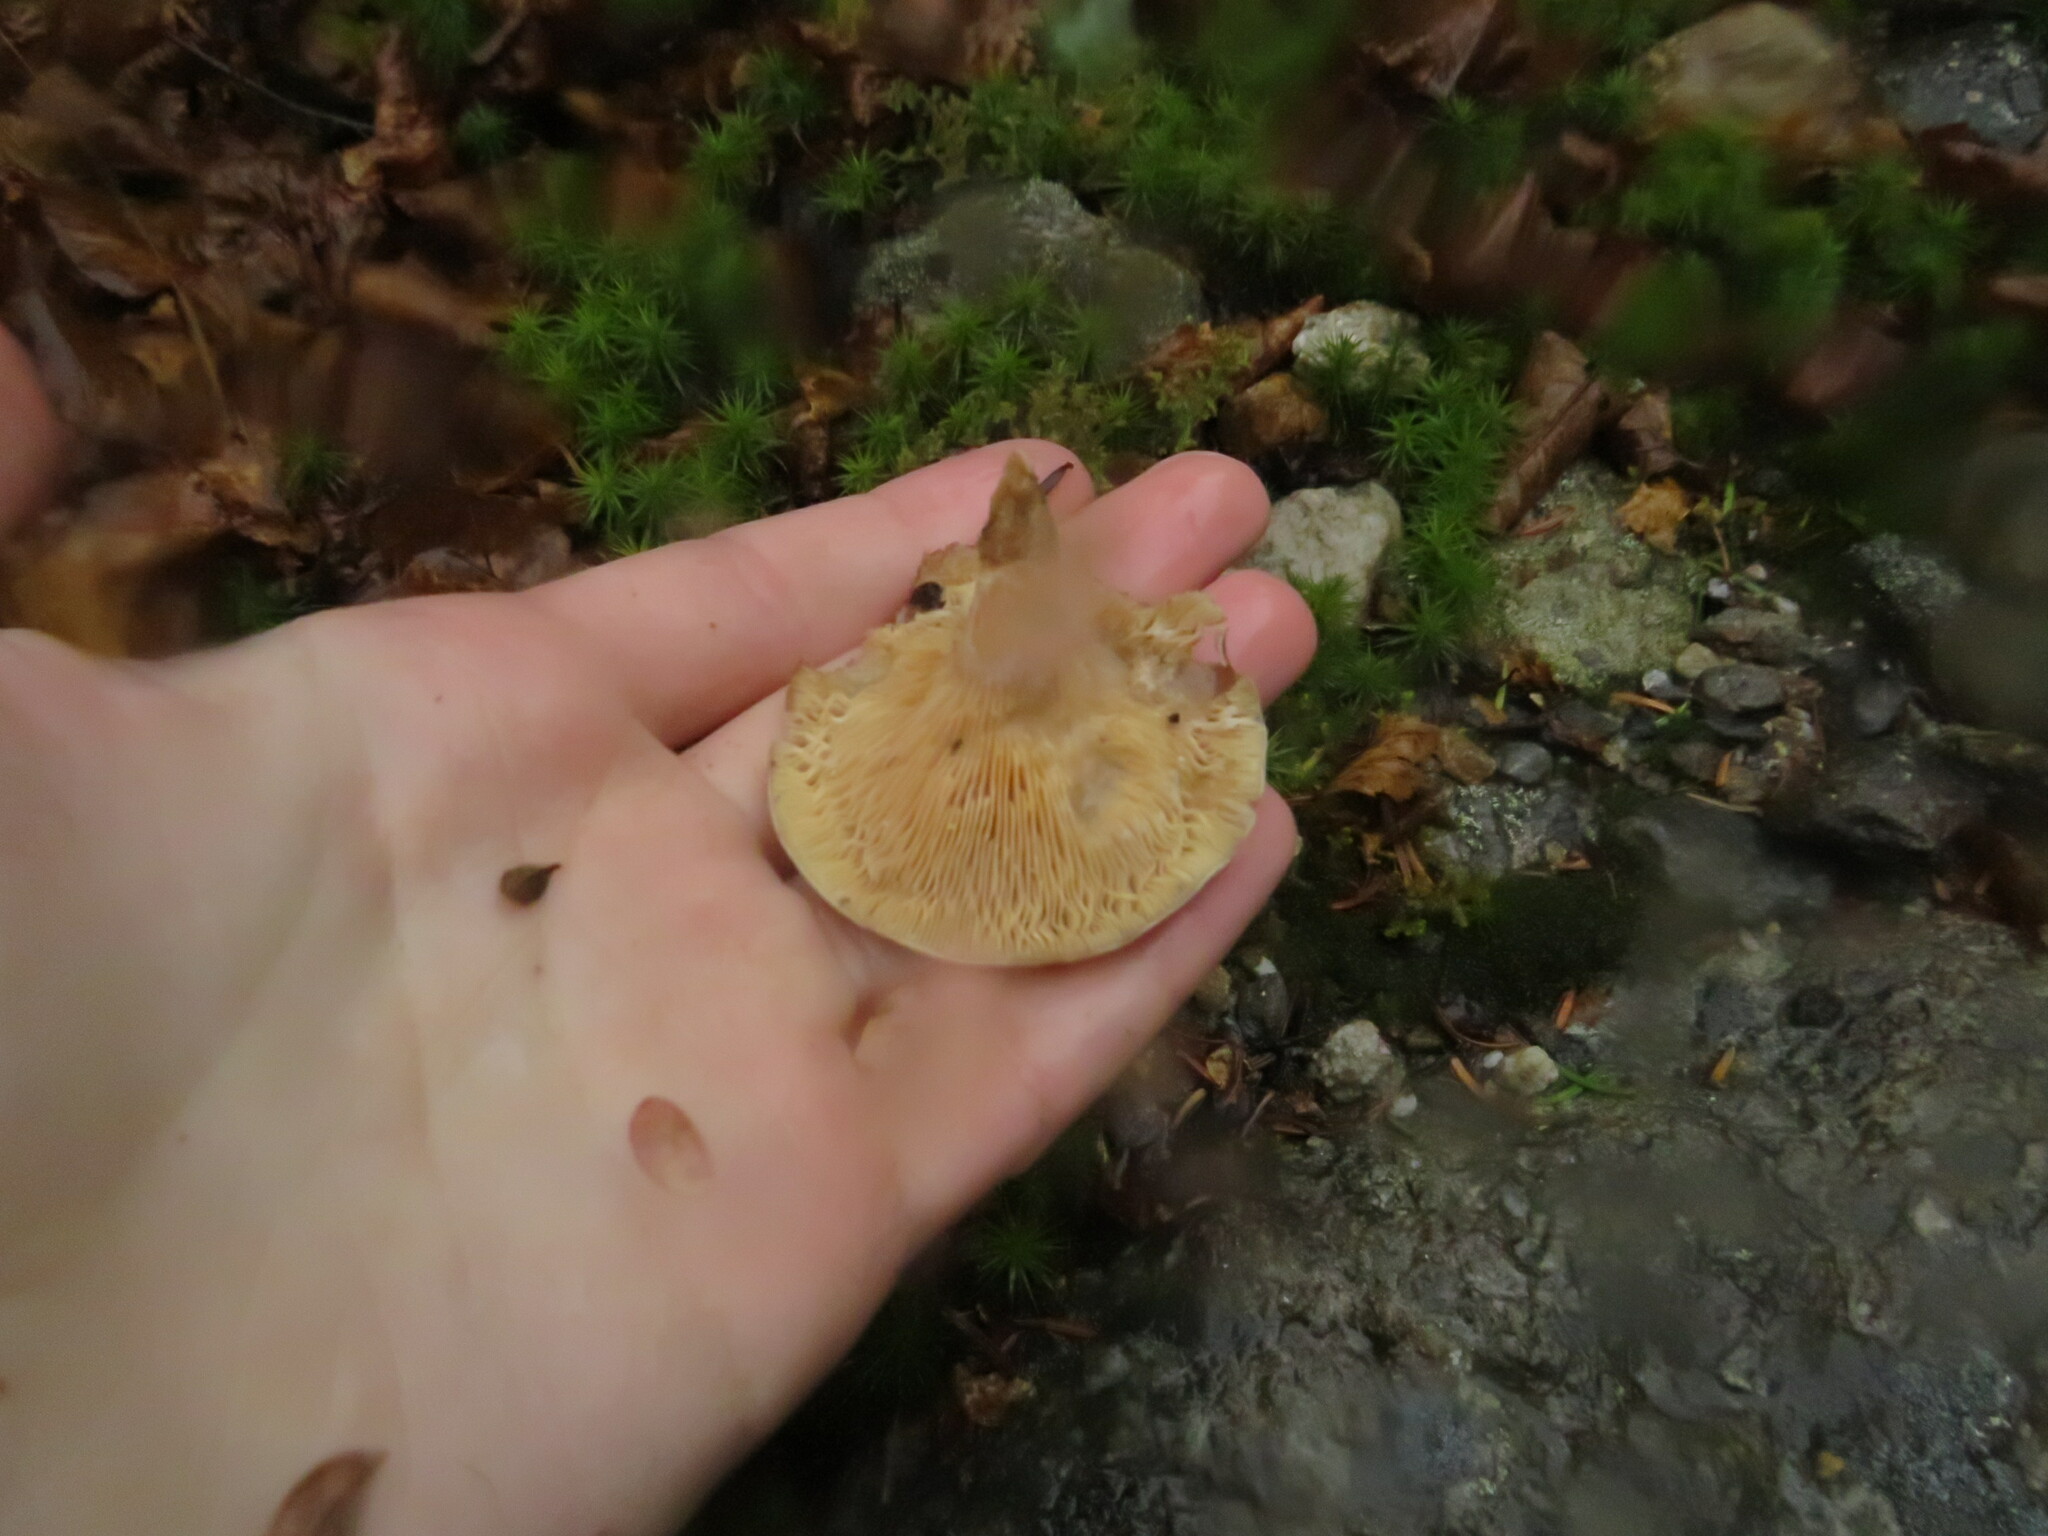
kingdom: Fungi
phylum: Basidiomycota
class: Agaricomycetes
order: Russulales
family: Russulaceae
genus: Lactarius
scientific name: Lactarius badiosanguineus
